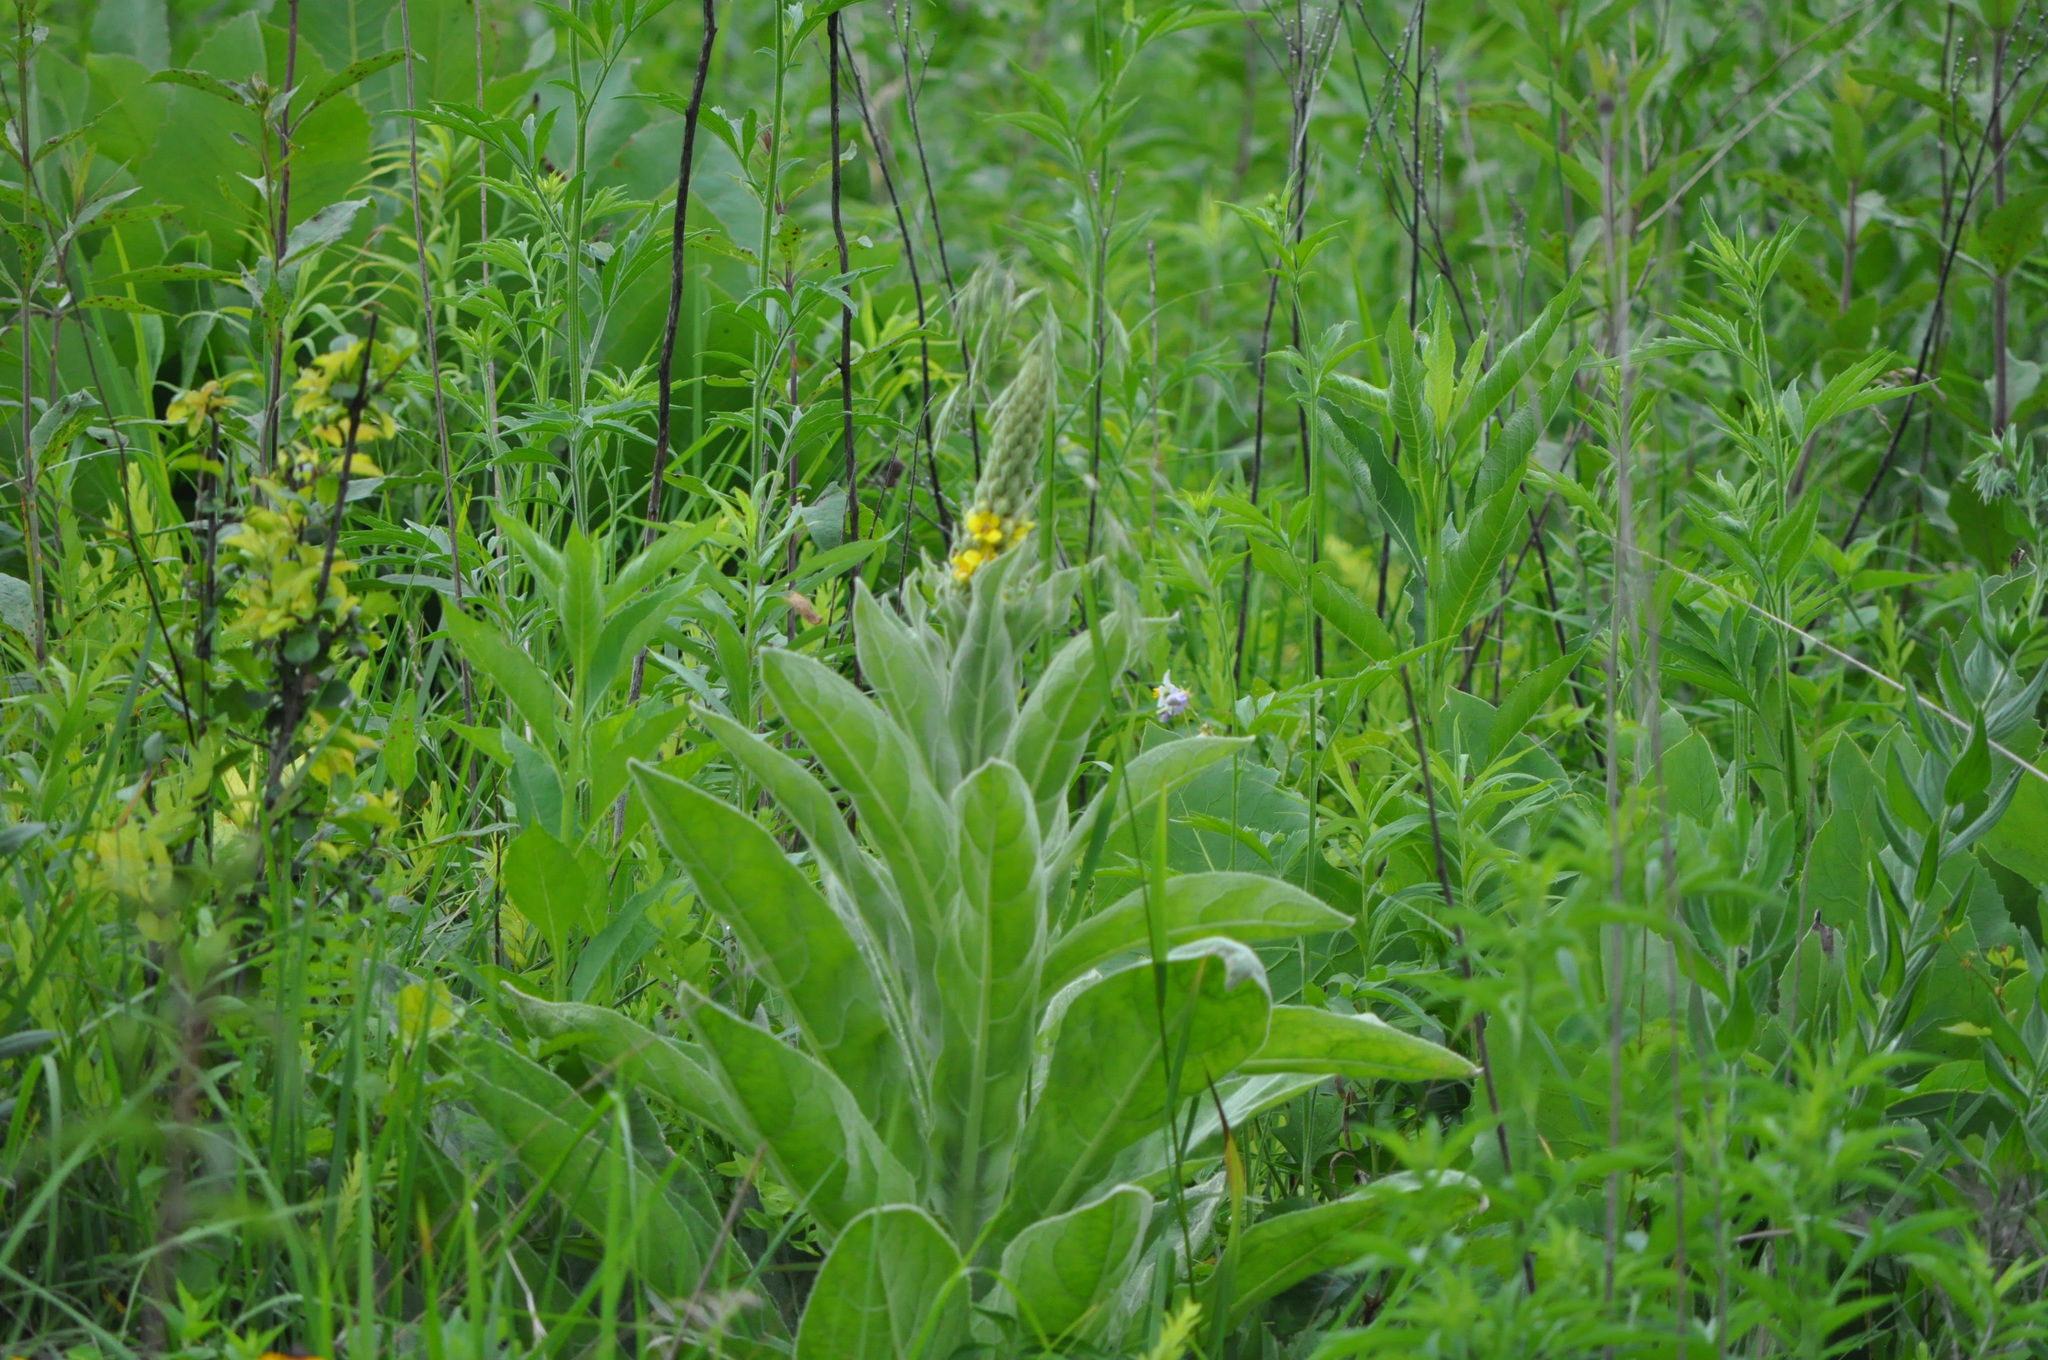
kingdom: Plantae
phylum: Tracheophyta
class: Magnoliopsida
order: Lamiales
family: Scrophulariaceae
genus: Verbascum
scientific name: Verbascum thapsus
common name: Common mullein
